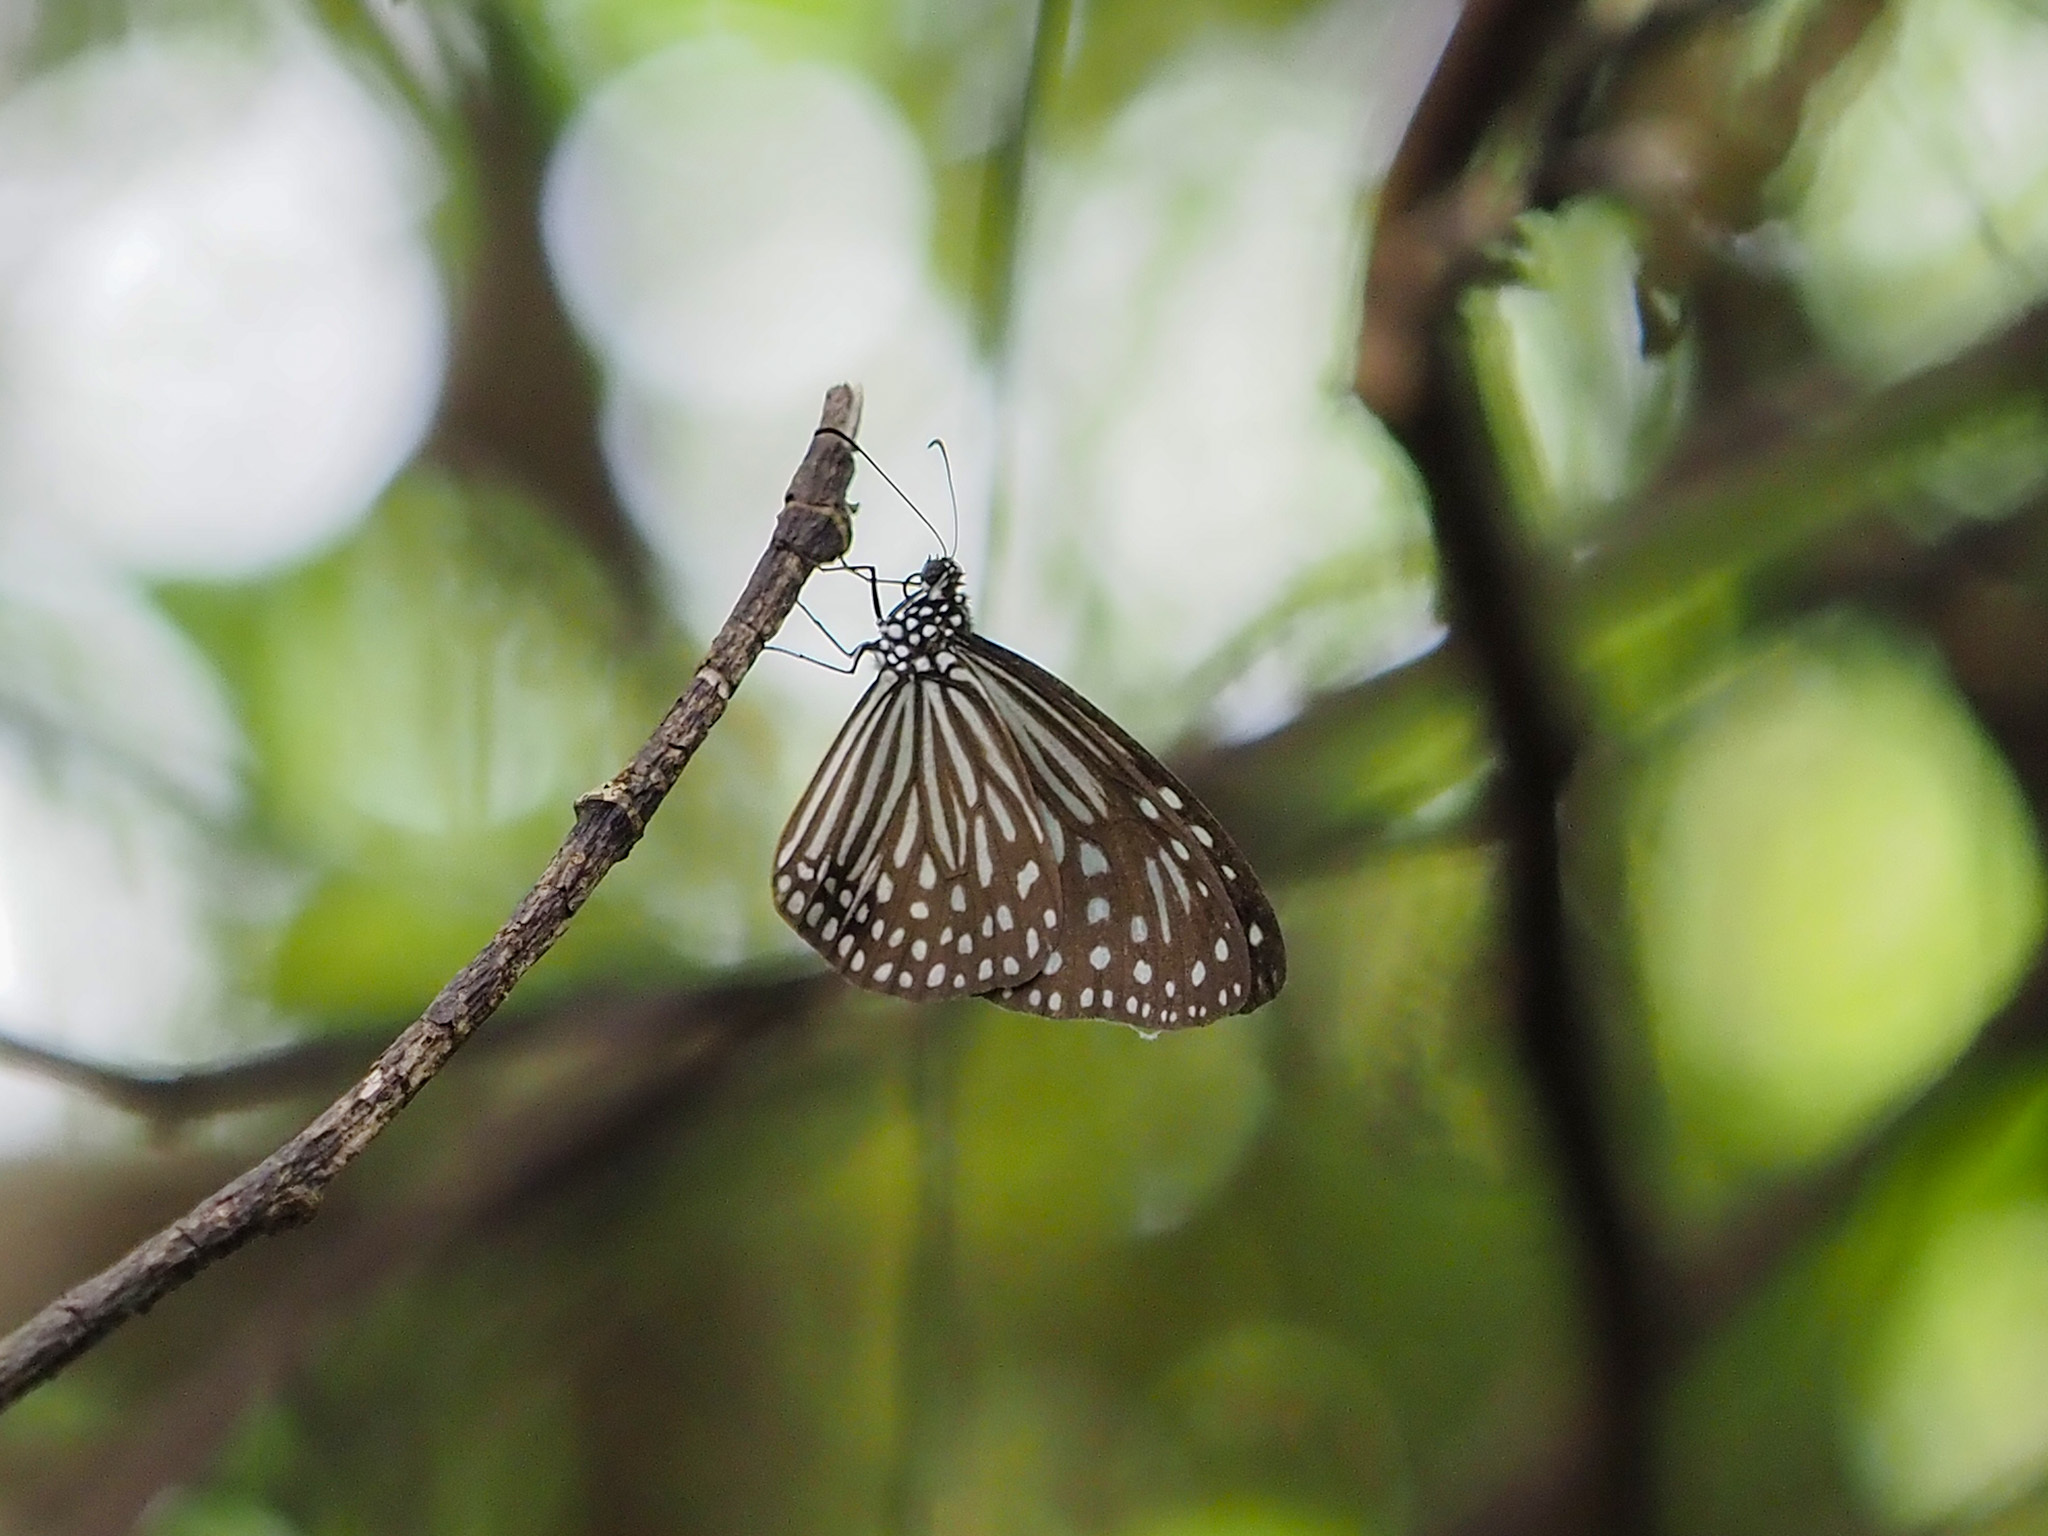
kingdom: Animalia
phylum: Arthropoda
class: Insecta
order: Lepidoptera
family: Nymphalidae
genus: Parantica
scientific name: Parantica agleoides
